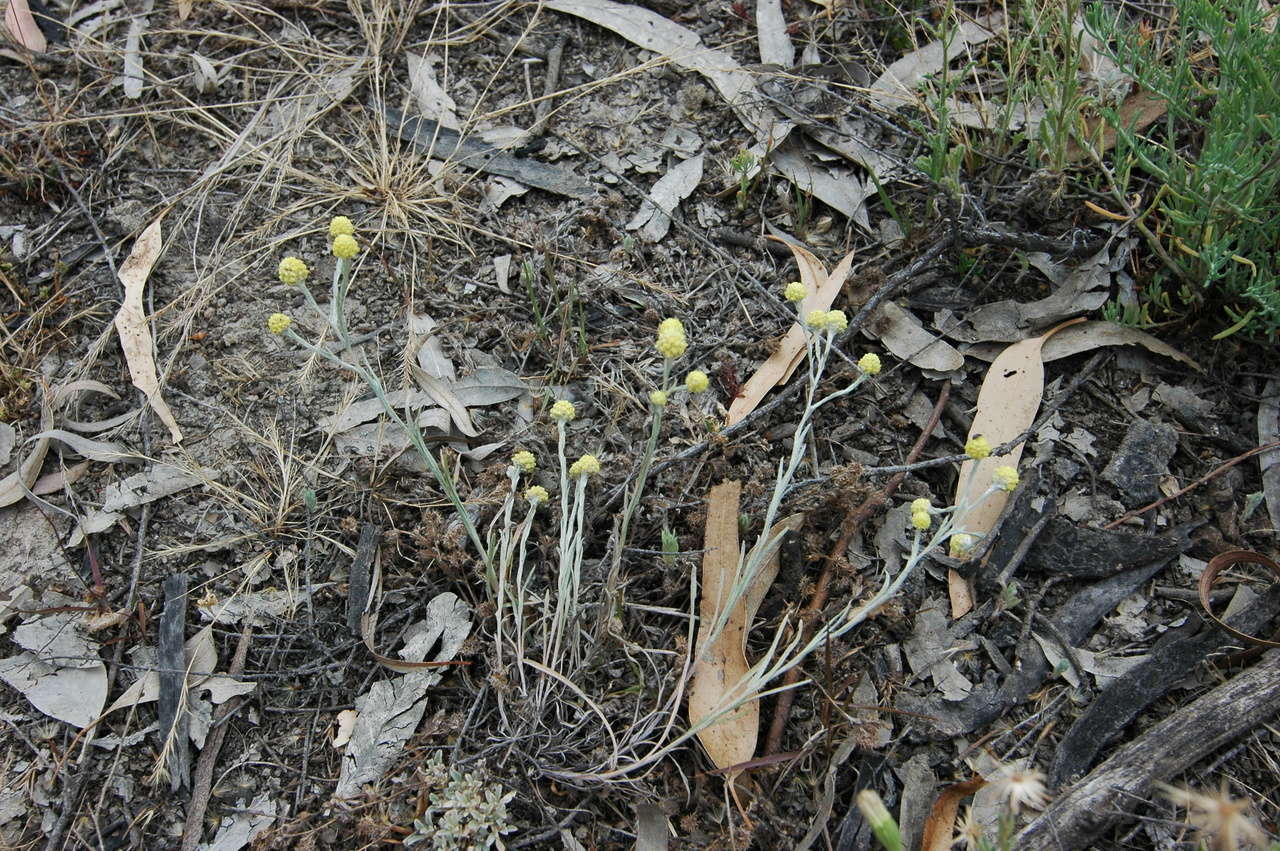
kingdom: Plantae
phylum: Tracheophyta
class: Magnoliopsida
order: Asterales
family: Asteraceae
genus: Calocephalus
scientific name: Calocephalus sonderi
